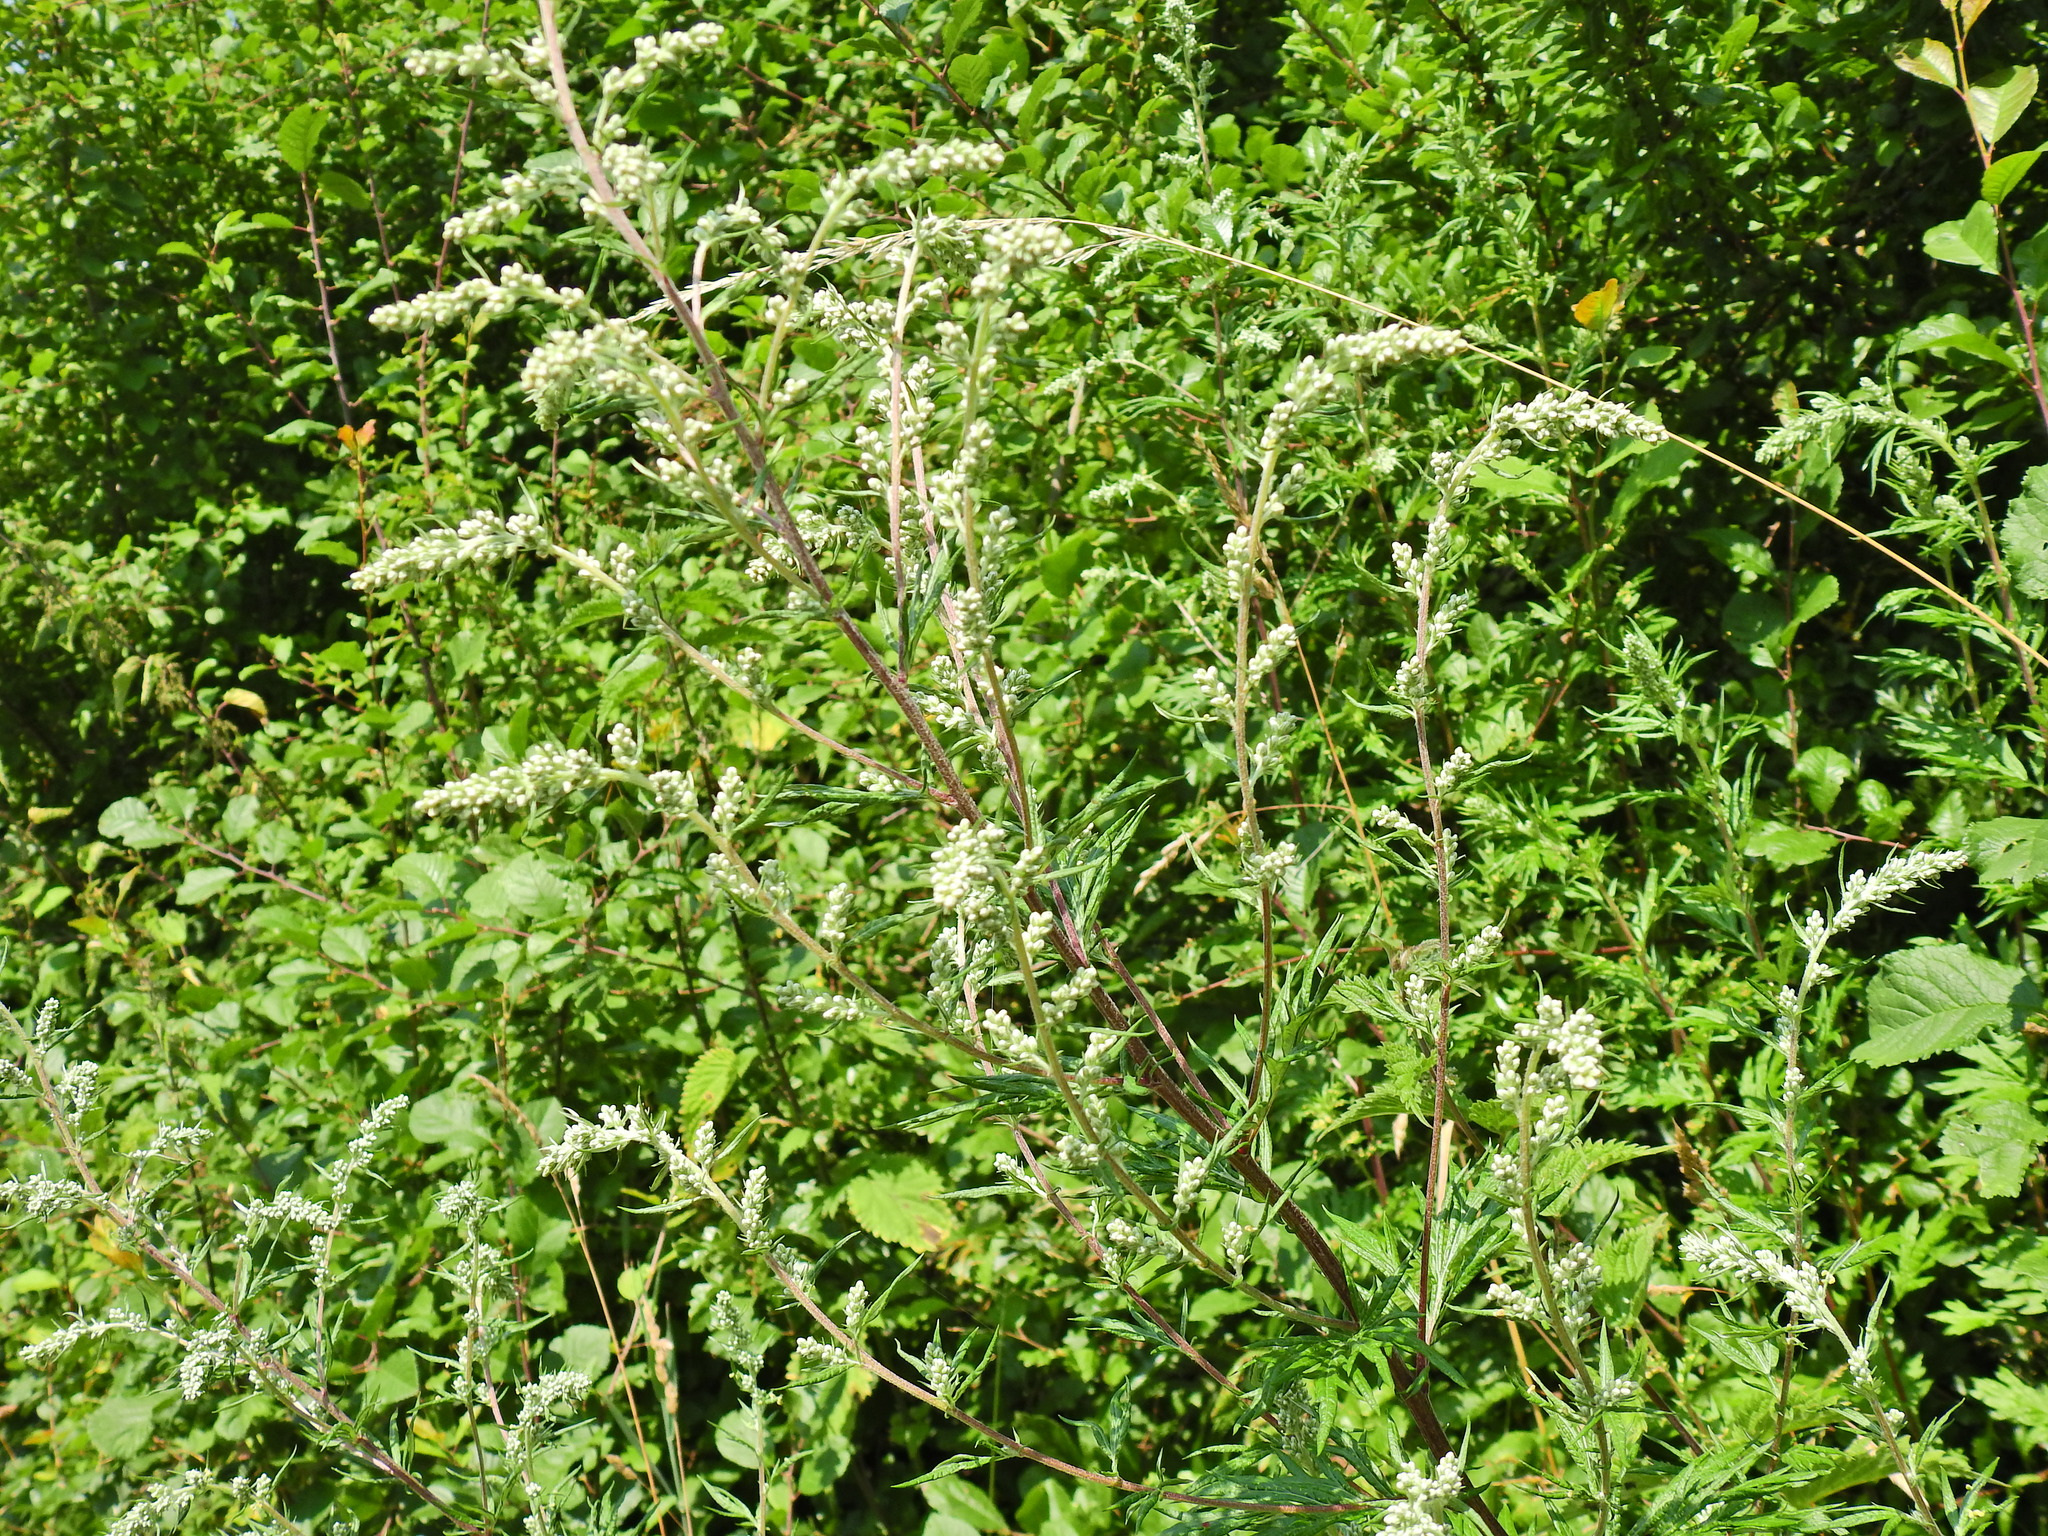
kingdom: Plantae
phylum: Tracheophyta
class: Magnoliopsida
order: Asterales
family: Asteraceae
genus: Artemisia
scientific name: Artemisia vulgaris
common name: Mugwort
